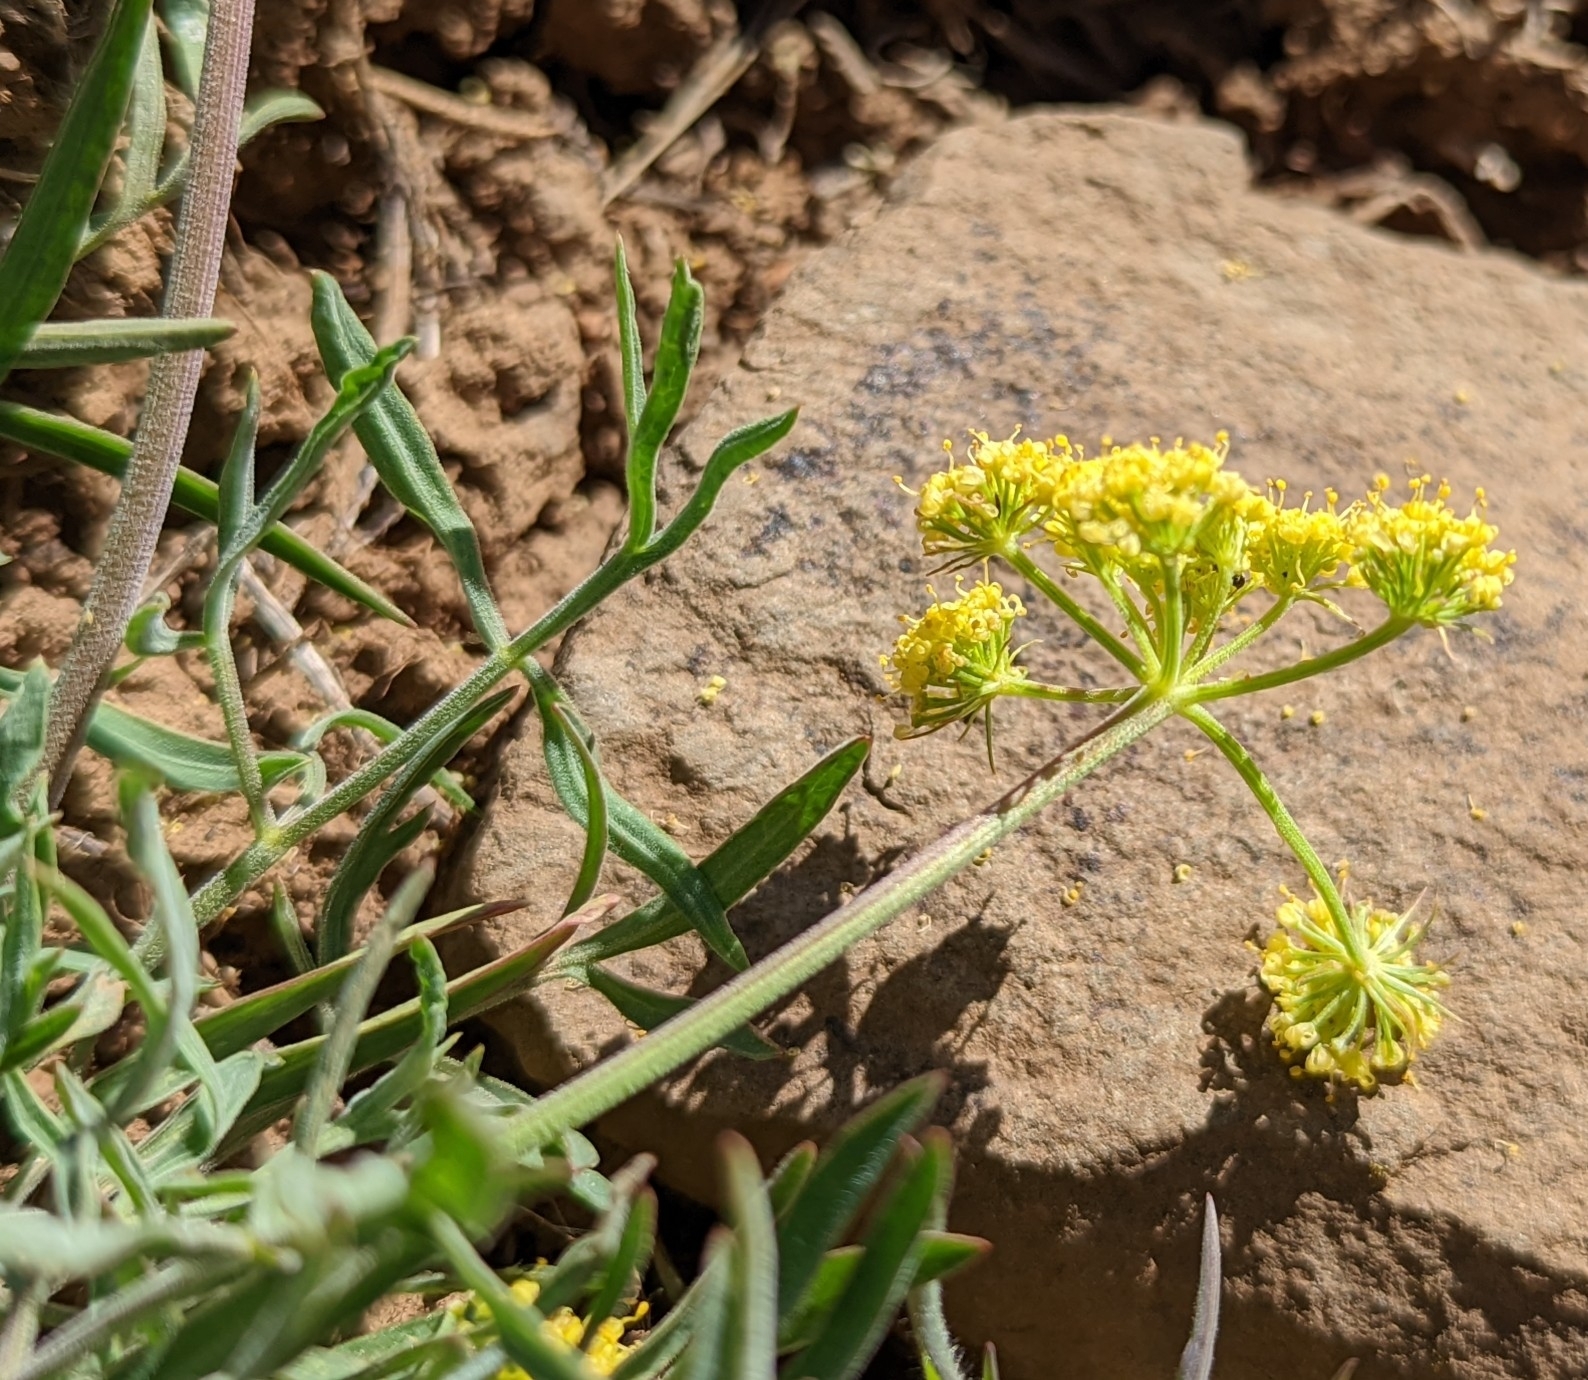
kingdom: Plantae
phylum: Tracheophyta
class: Magnoliopsida
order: Apiales
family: Apiaceae
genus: Lomatium
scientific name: Lomatium triternatum
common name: Ternate lomatium
